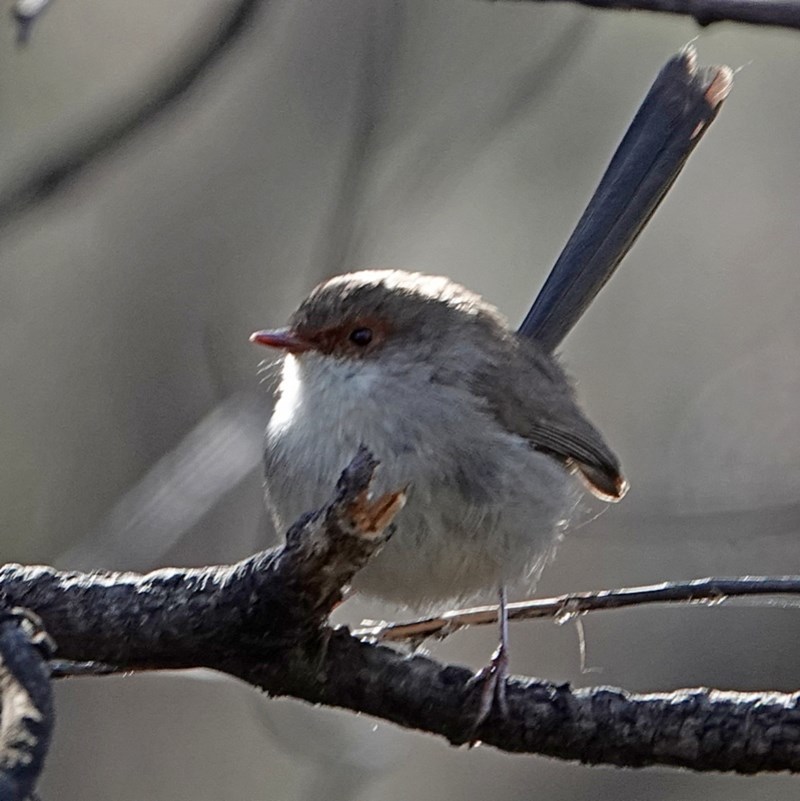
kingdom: Animalia
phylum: Chordata
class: Aves
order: Passeriformes
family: Maluridae
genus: Malurus
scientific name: Malurus cyaneus
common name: Superb fairywren
